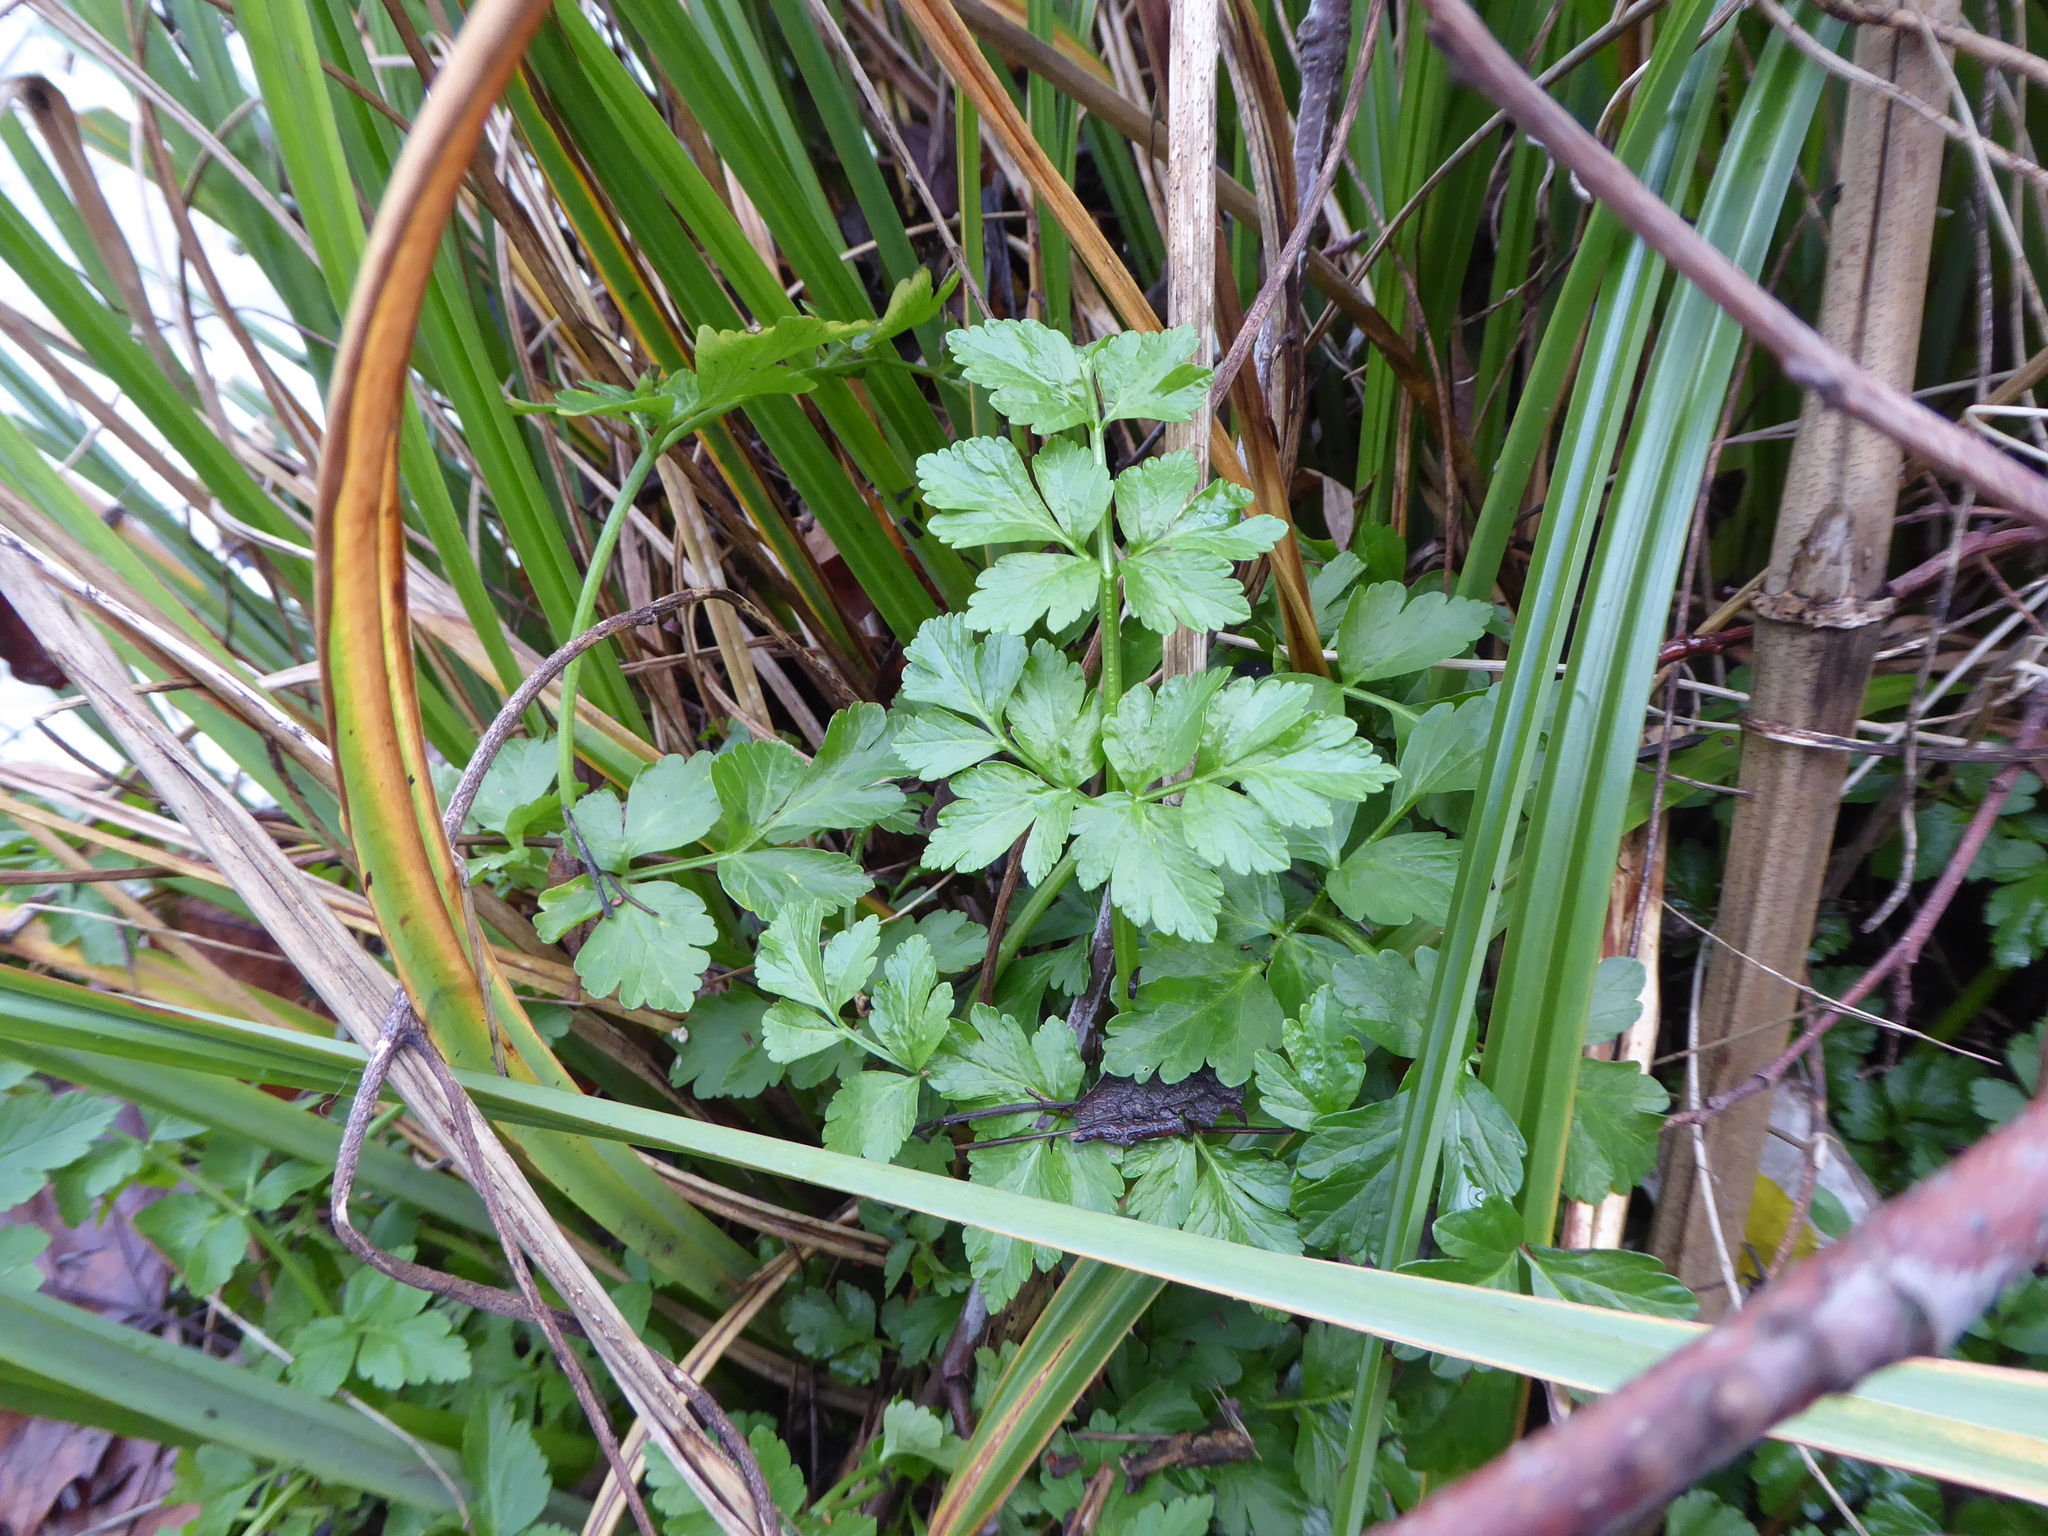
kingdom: Plantae
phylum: Tracheophyta
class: Magnoliopsida
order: Apiales
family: Apiaceae
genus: Oenanthe
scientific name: Oenanthe crocata
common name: Hemlock water-dropwort
